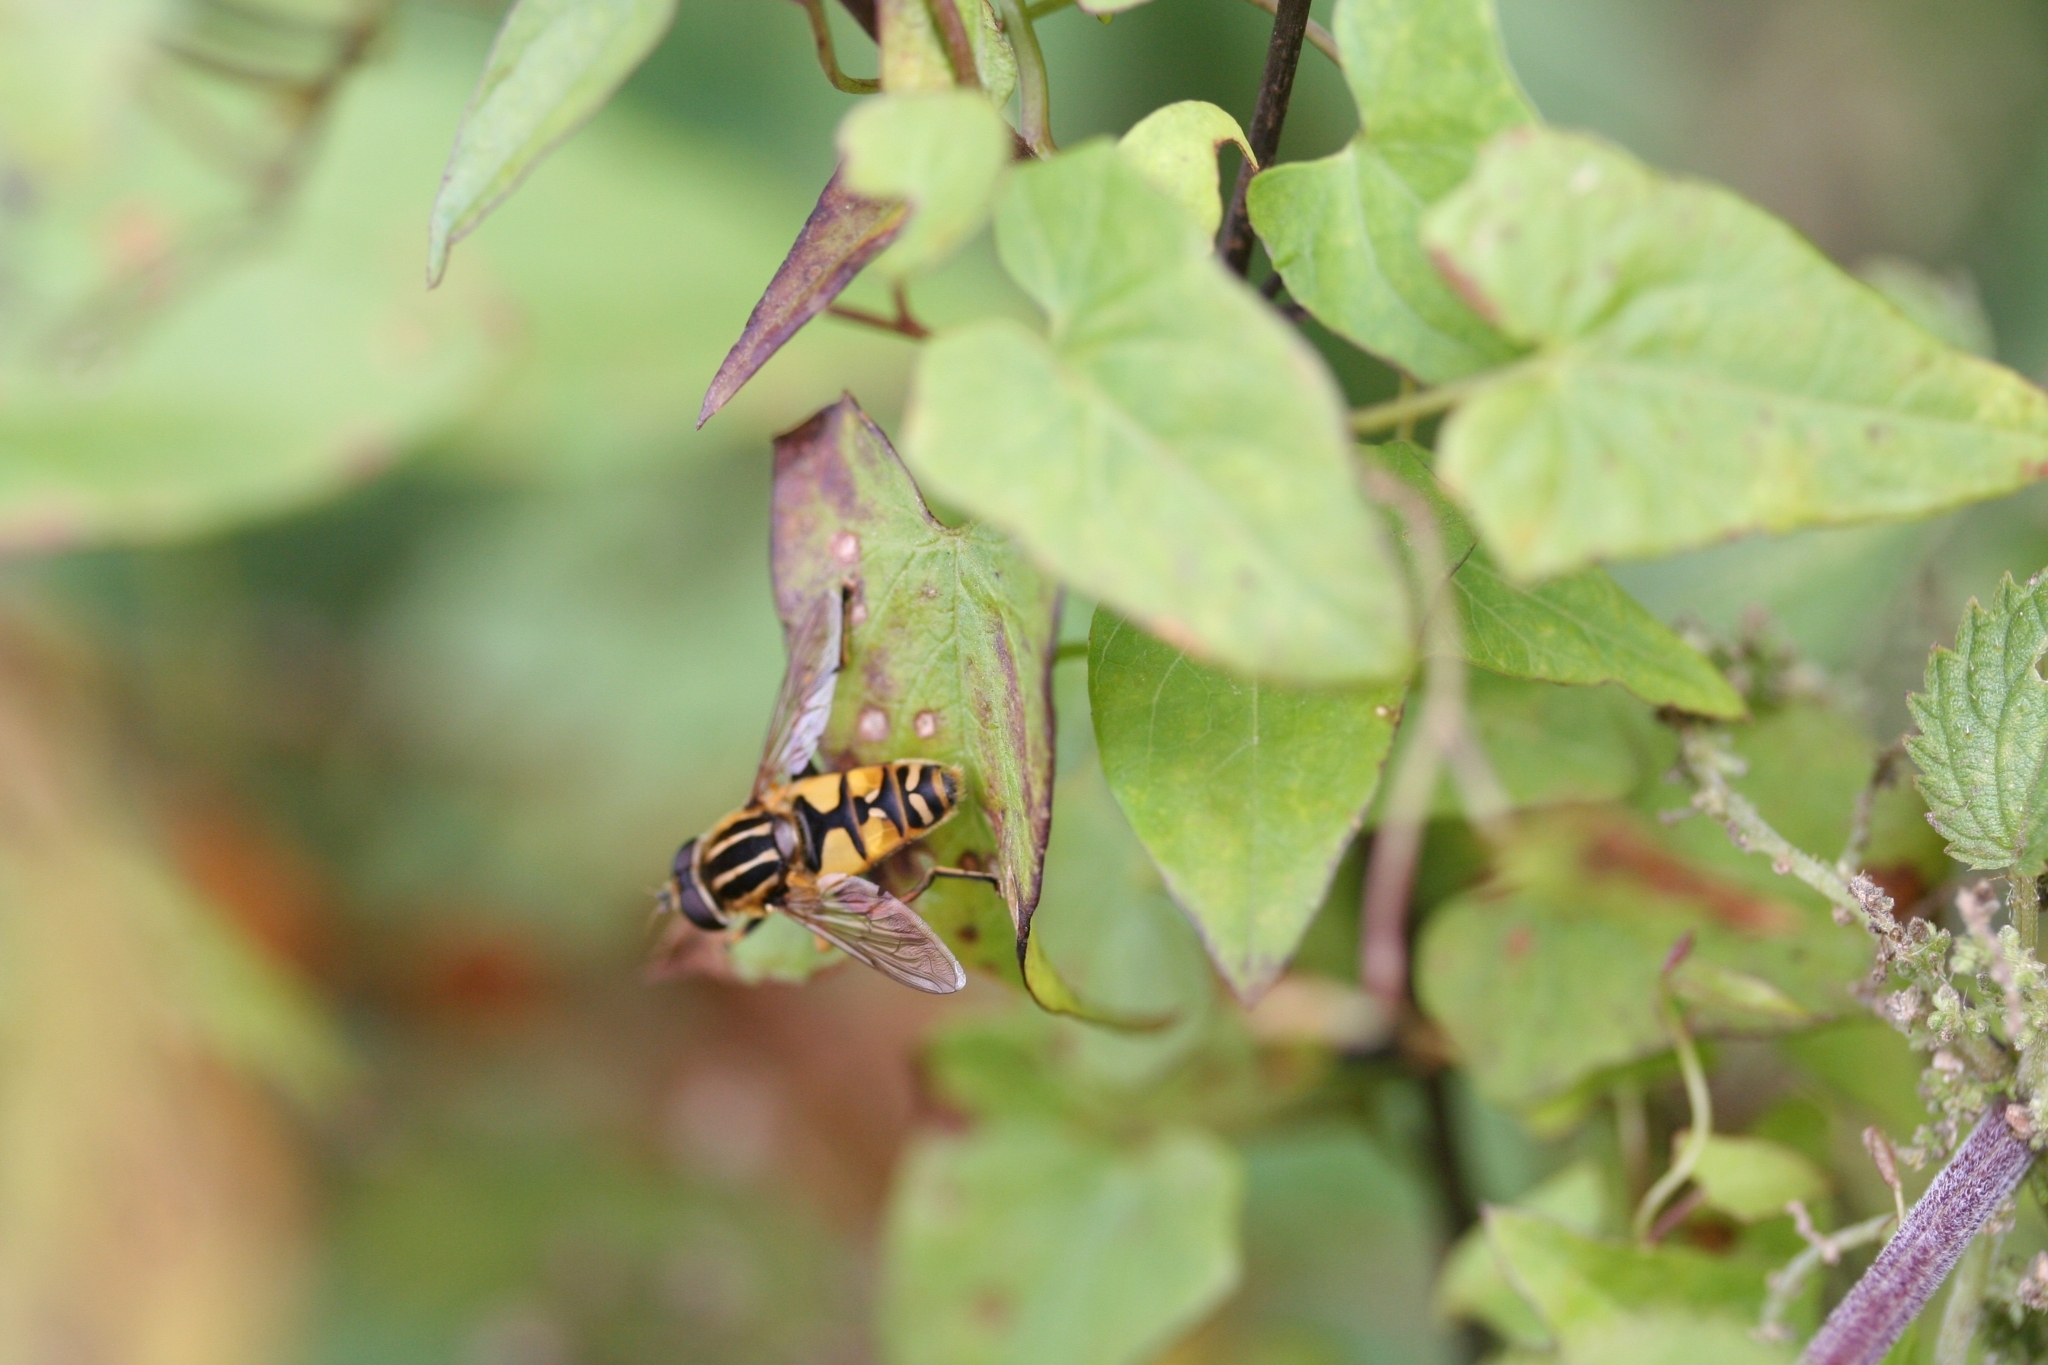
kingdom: Animalia
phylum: Arthropoda
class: Insecta
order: Diptera
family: Syrphidae
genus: Helophilus
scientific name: Helophilus pendulus
